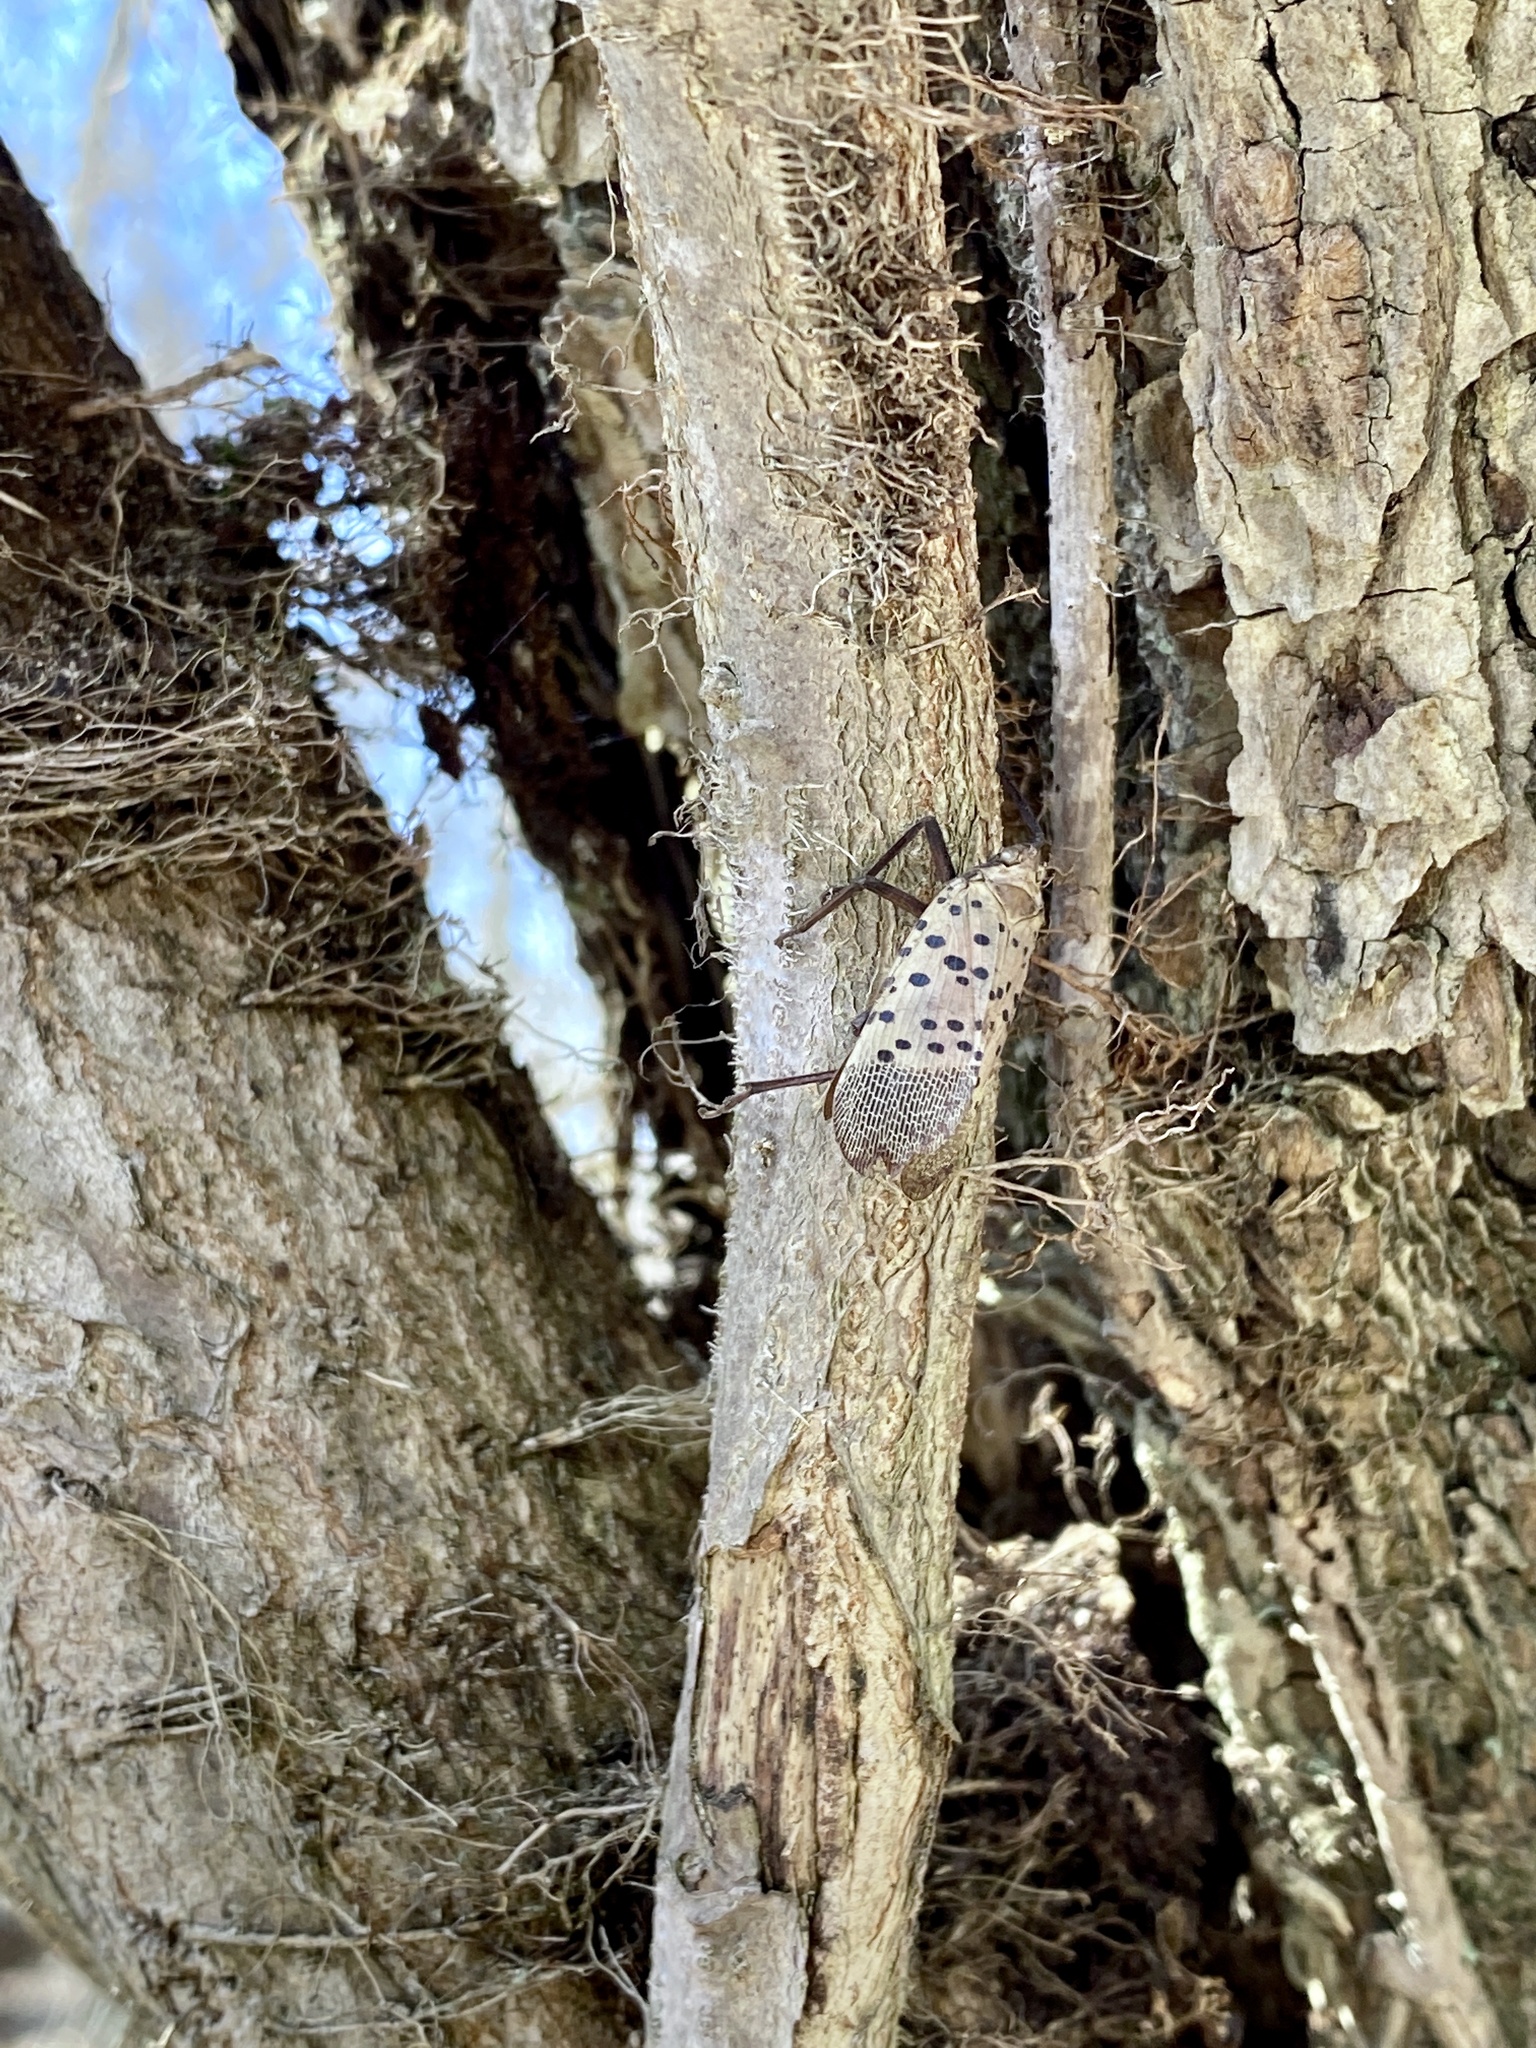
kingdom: Animalia
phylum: Arthropoda
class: Insecta
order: Hemiptera
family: Fulgoridae
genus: Lycorma
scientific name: Lycorma delicatula
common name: Spotted lanternfly
